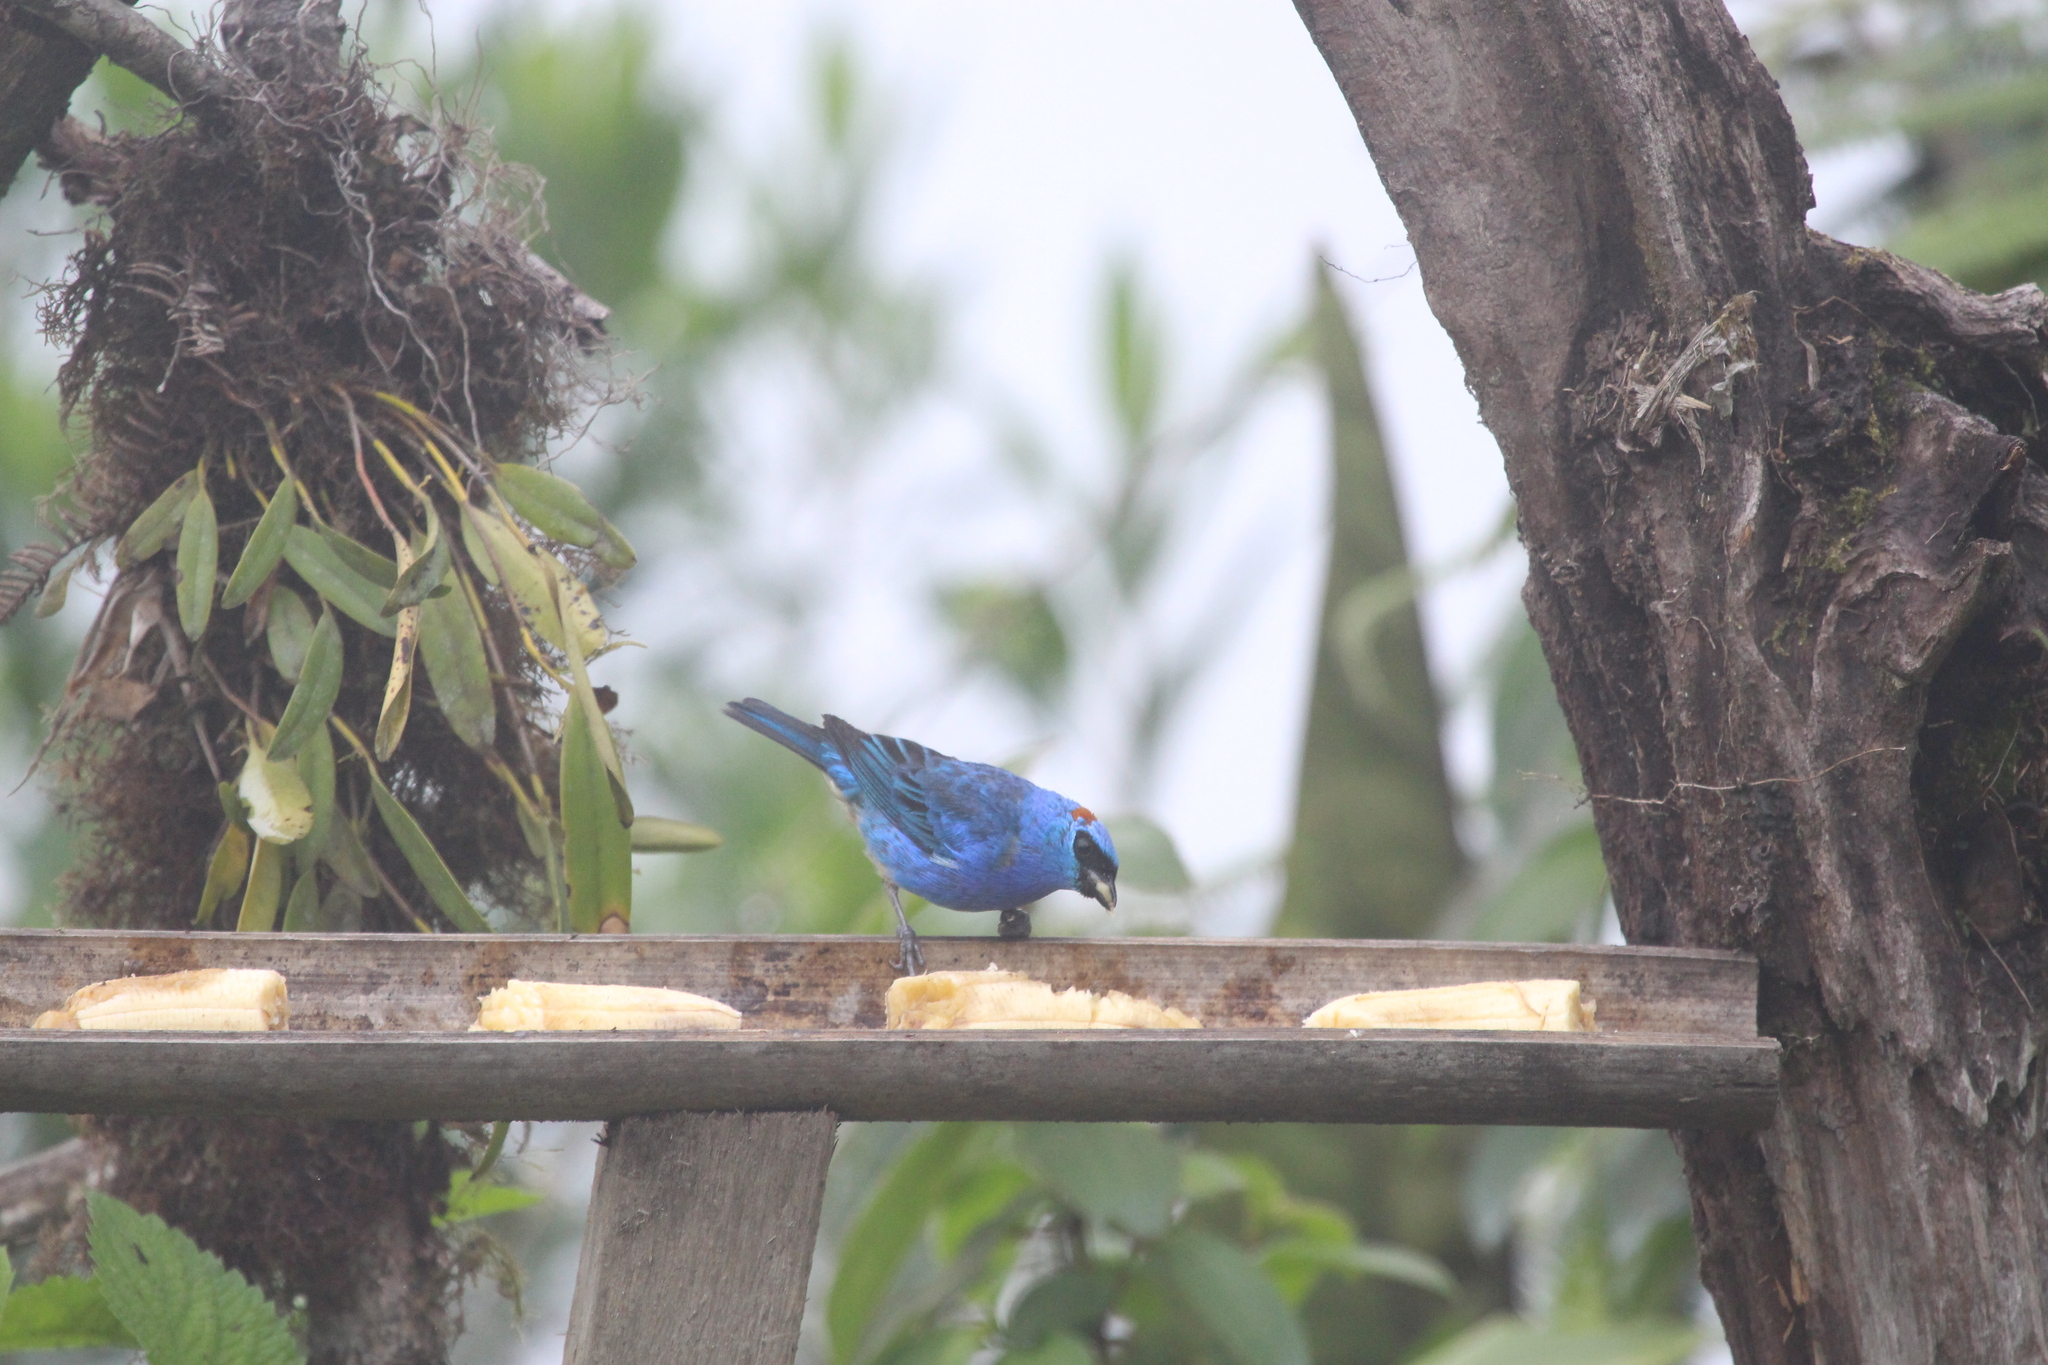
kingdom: Animalia
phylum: Chordata
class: Aves
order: Passeriformes
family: Thraupidae
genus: Chalcothraupis
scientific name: Chalcothraupis ruficervix
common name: Golden-naped tanager
